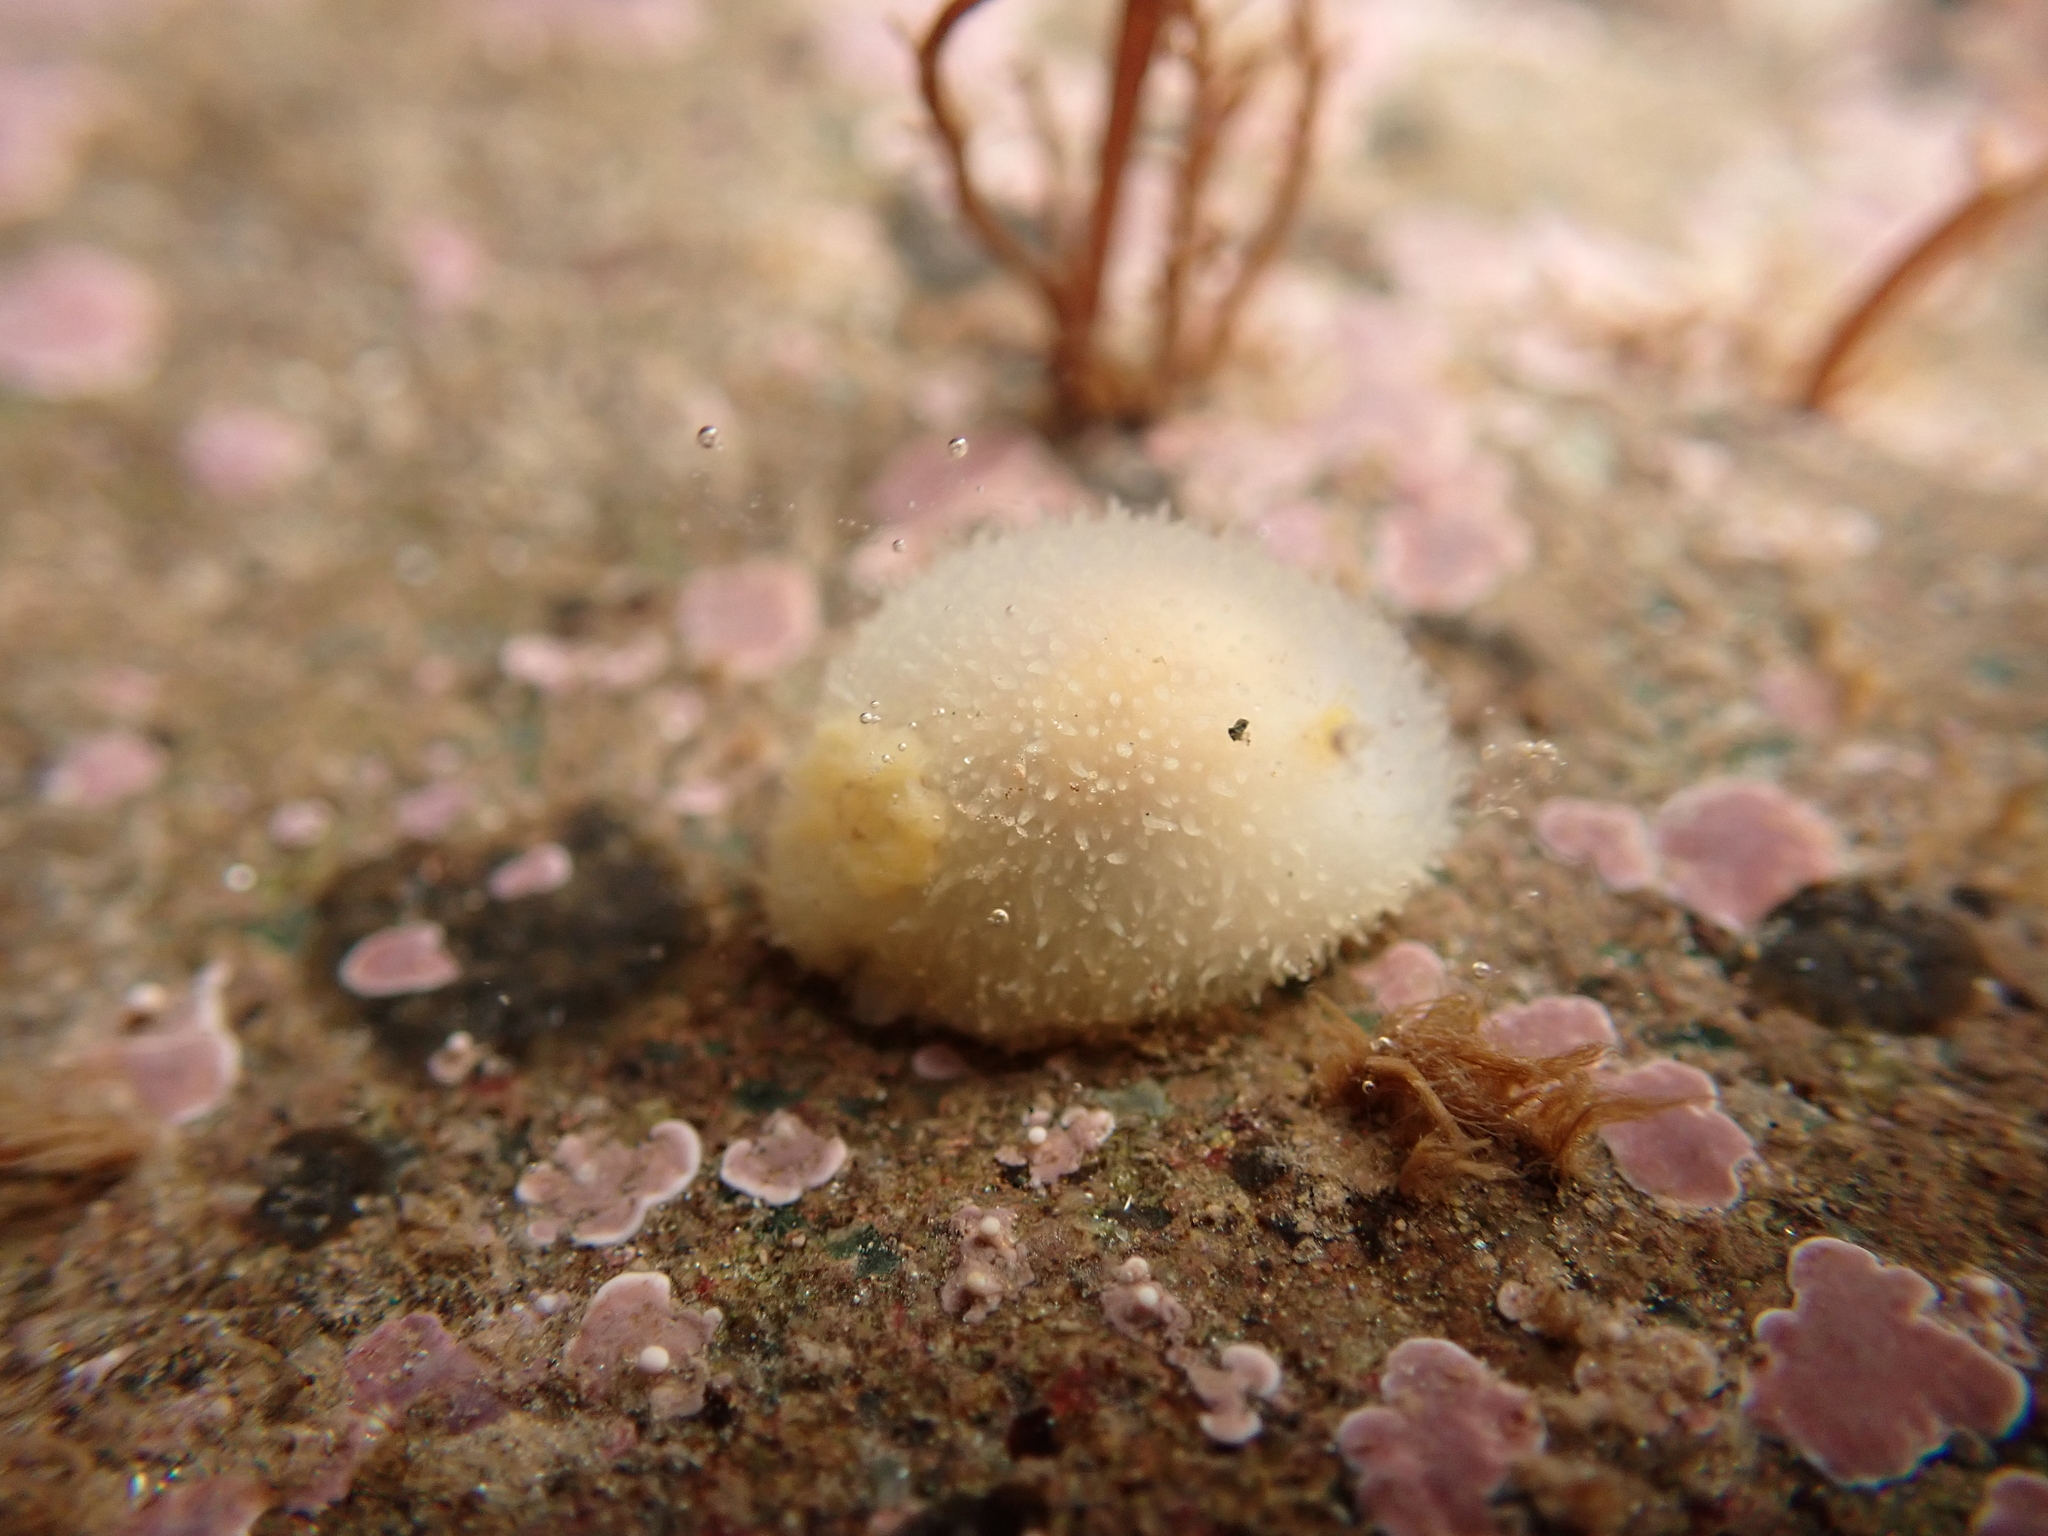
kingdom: Animalia
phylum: Mollusca
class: Gastropoda
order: Nudibranchia
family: Onchidorididae
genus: Acanthodoris
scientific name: Acanthodoris pilosa
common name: Hairy spiny doris
